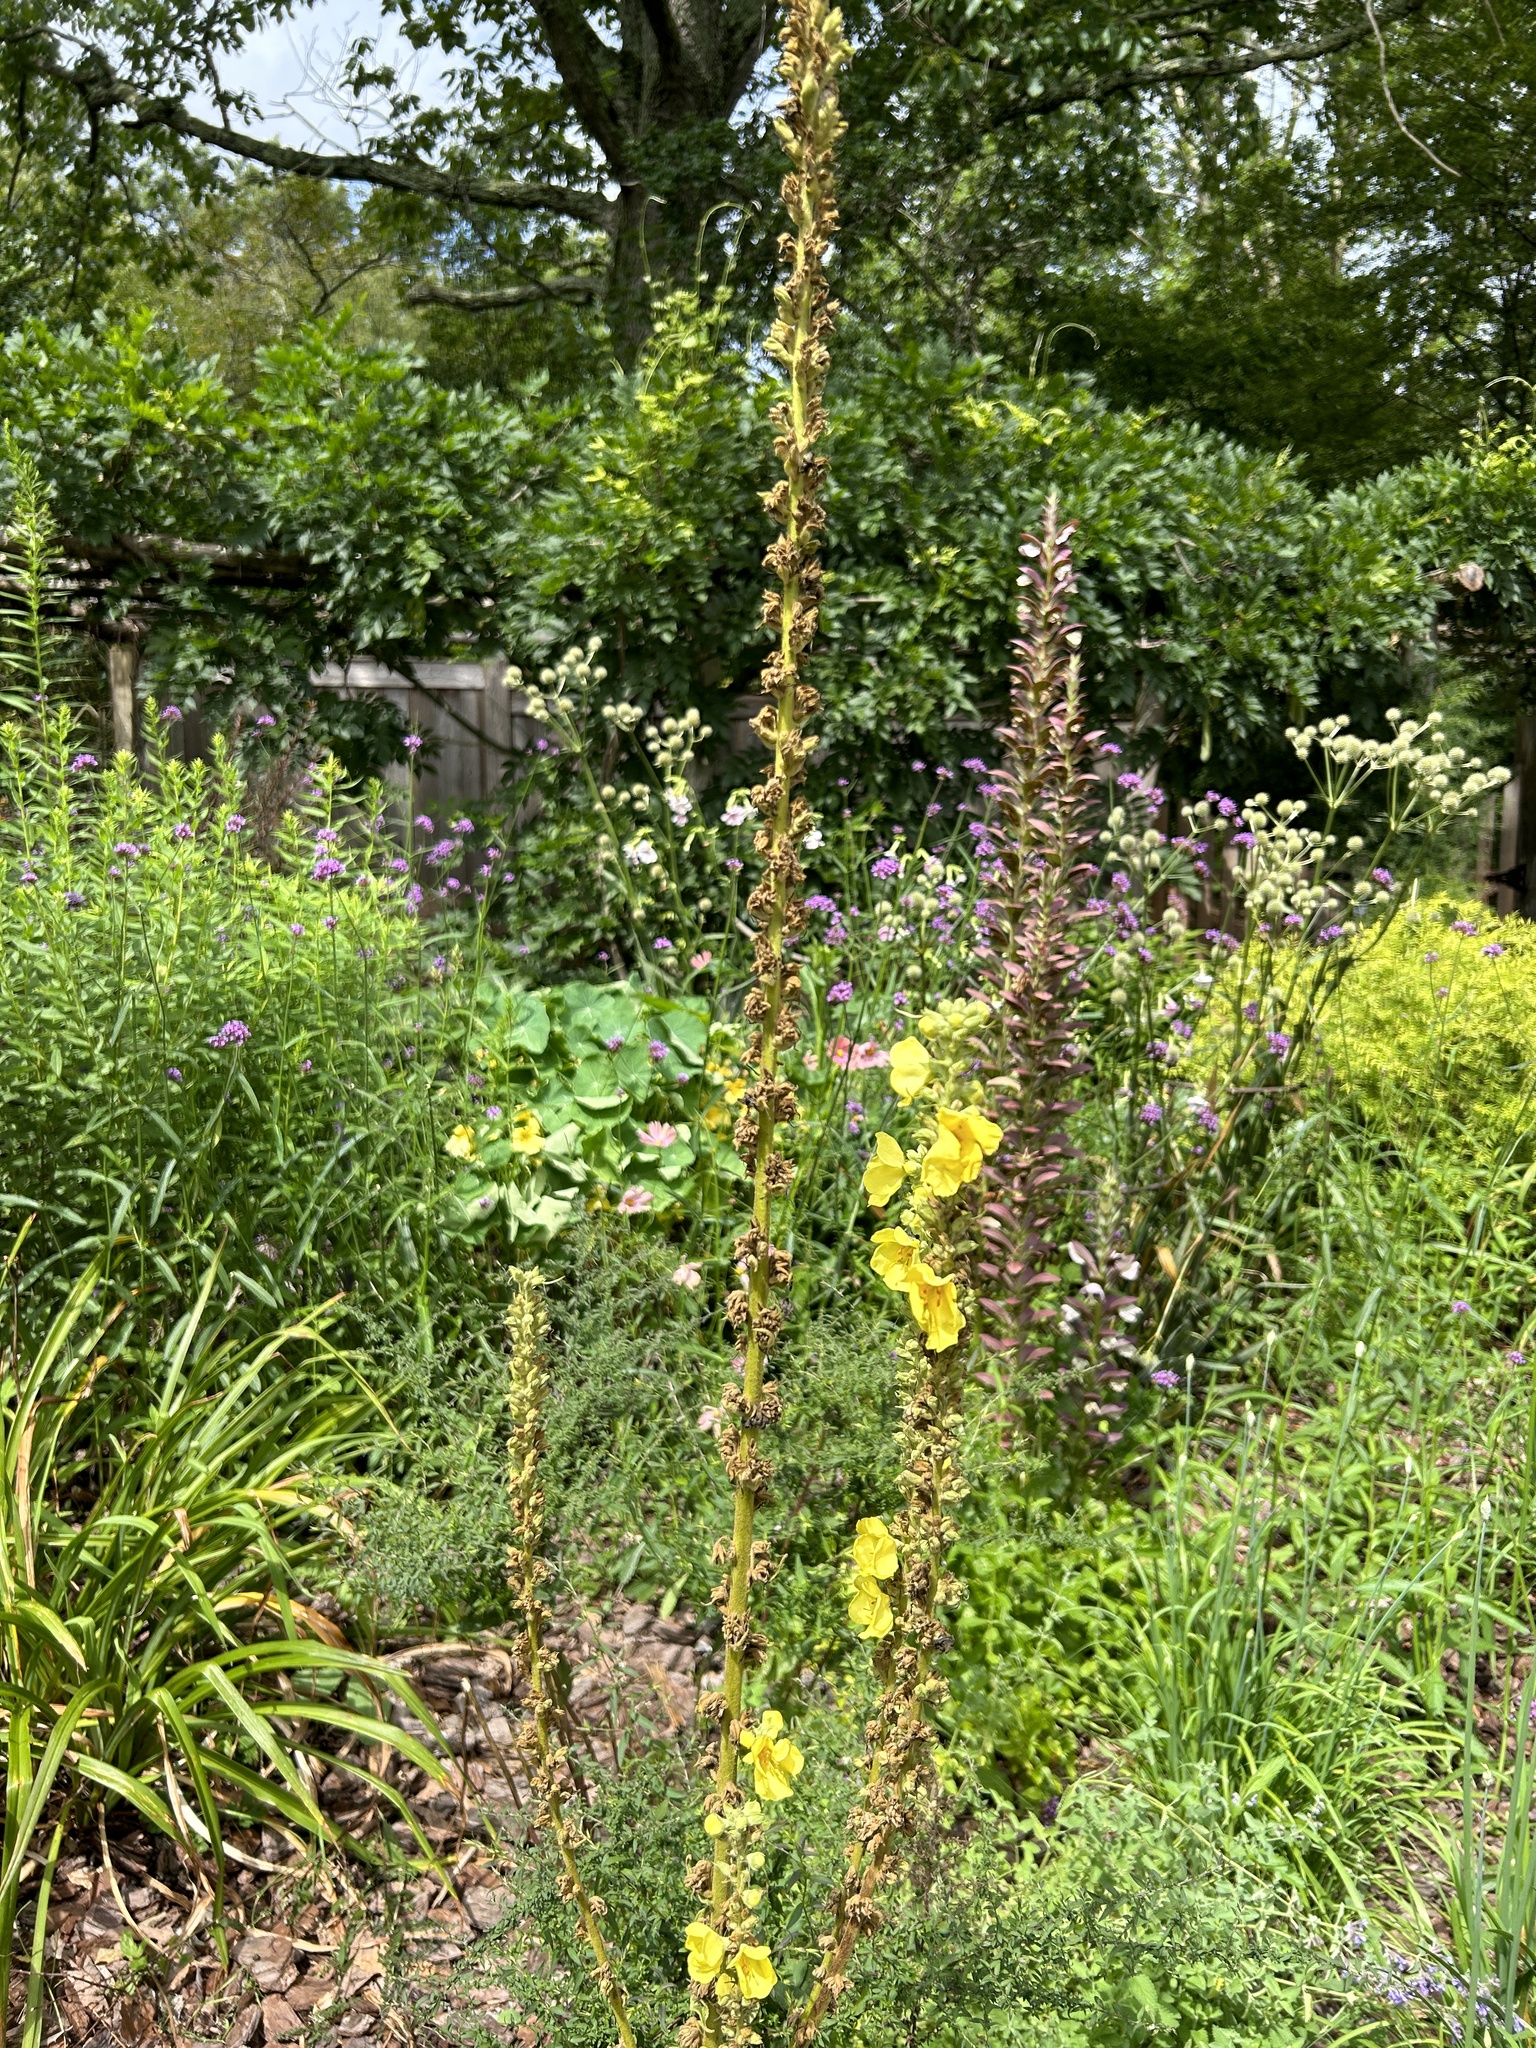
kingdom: Plantae
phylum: Tracheophyta
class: Magnoliopsida
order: Lamiales
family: Scrophulariaceae
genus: Verbascum
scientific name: Verbascum phlomoides
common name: Orange mullein
